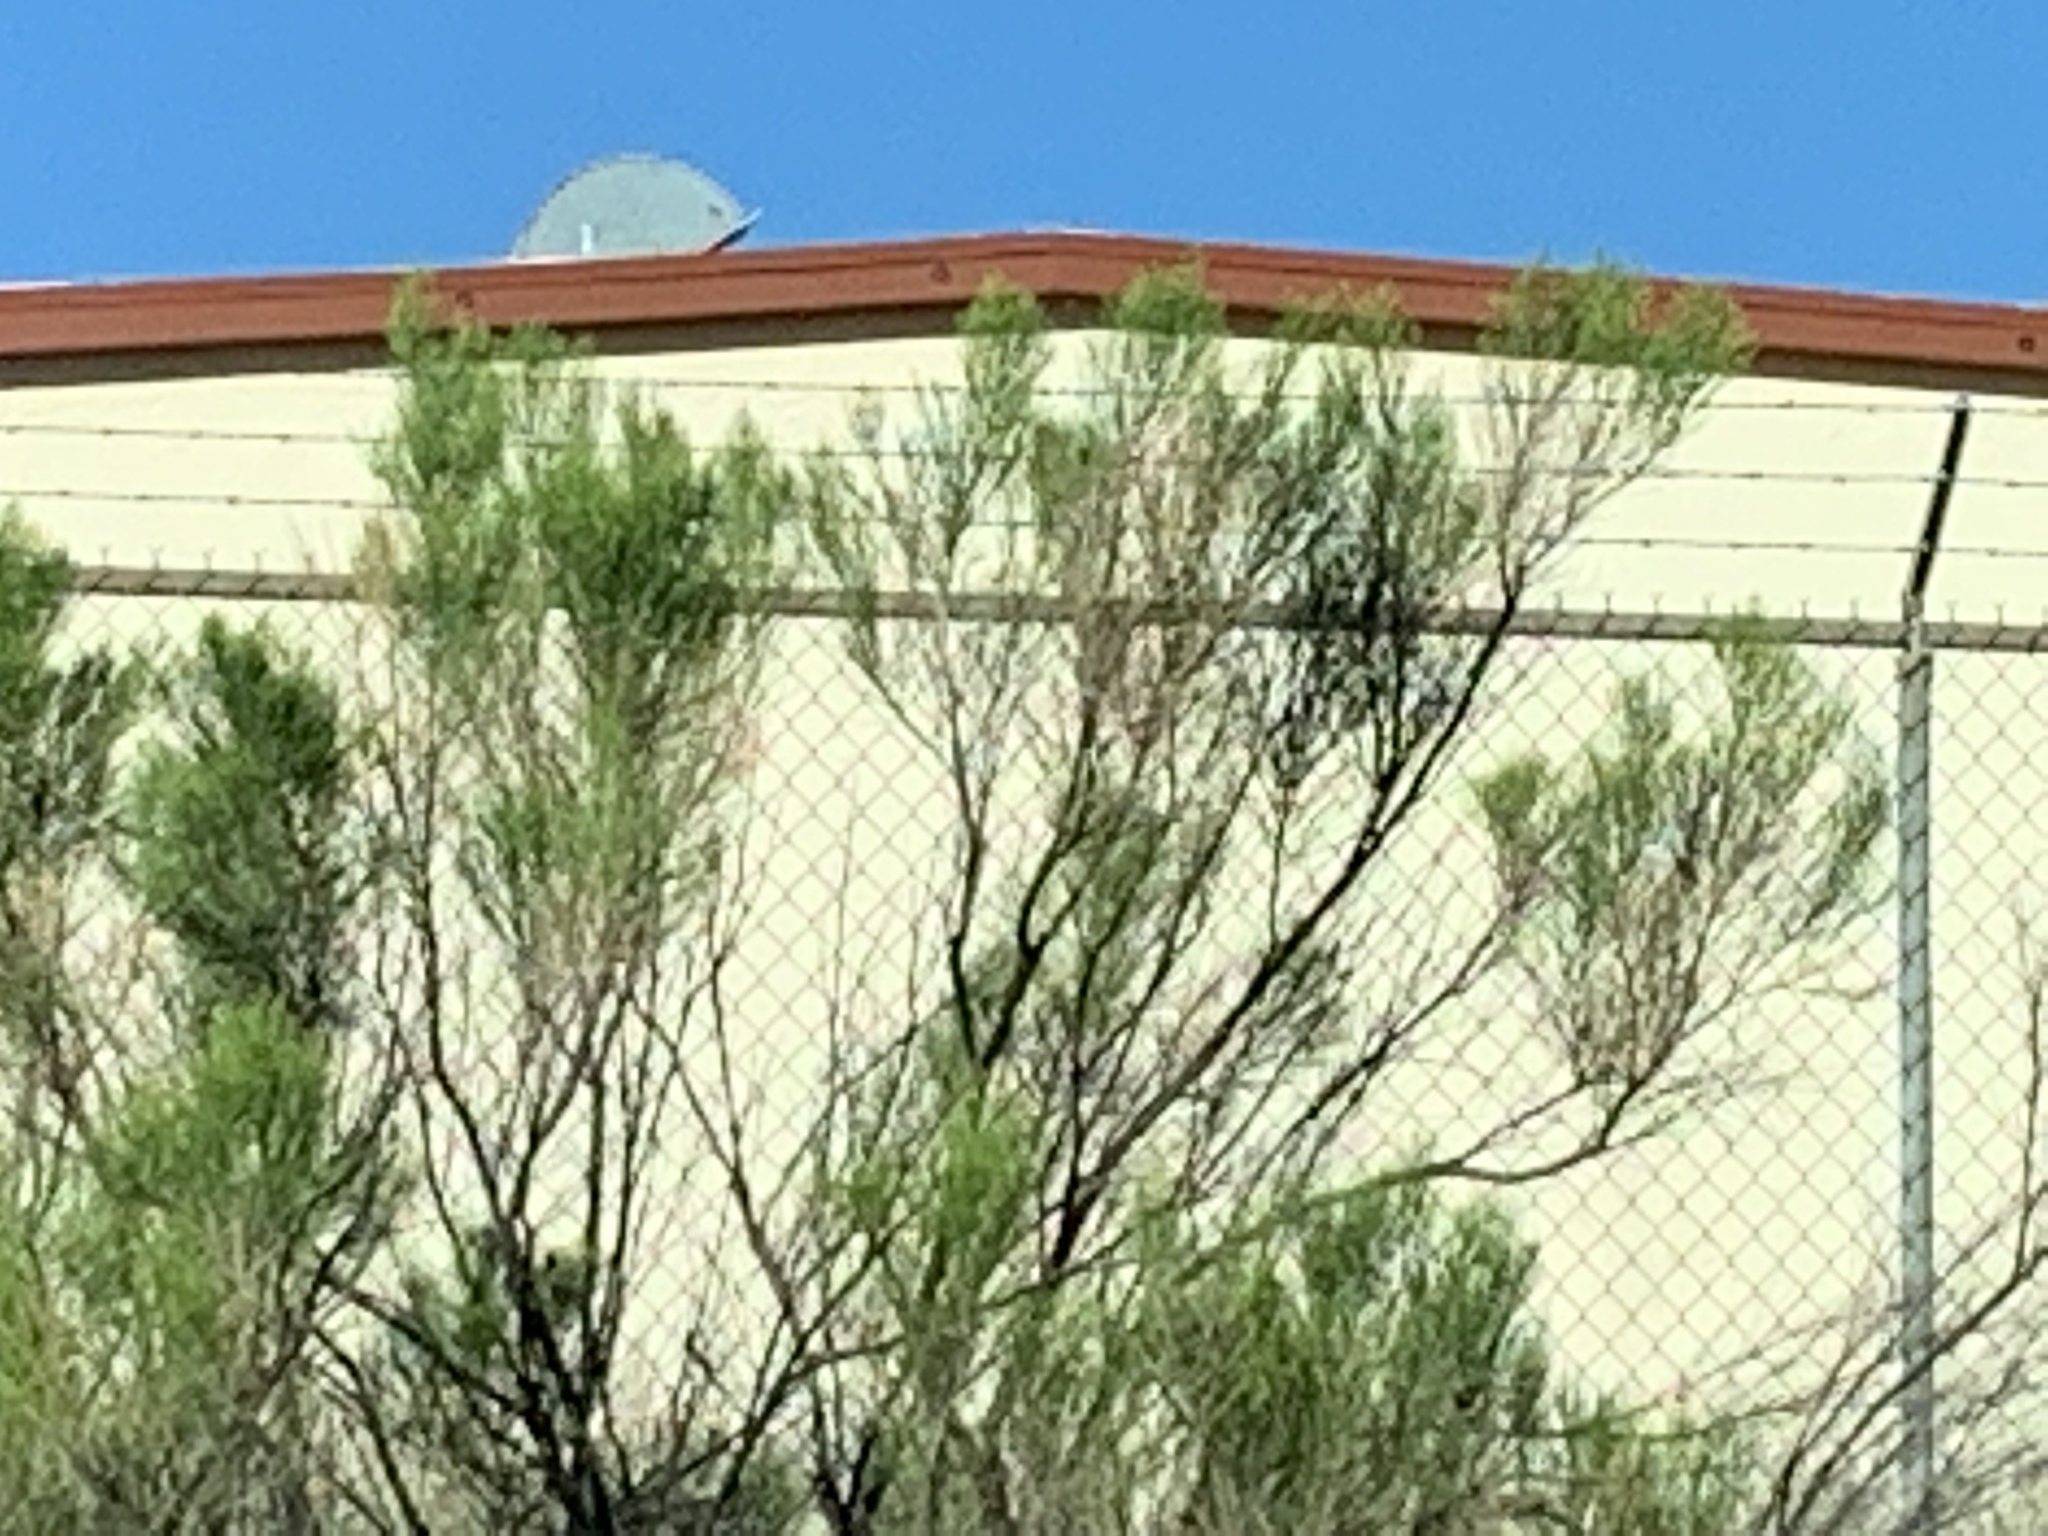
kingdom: Plantae
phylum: Tracheophyta
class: Magnoliopsida
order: Asterales
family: Asteraceae
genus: Baccharis
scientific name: Baccharis sarothroides
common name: Desert-broom
